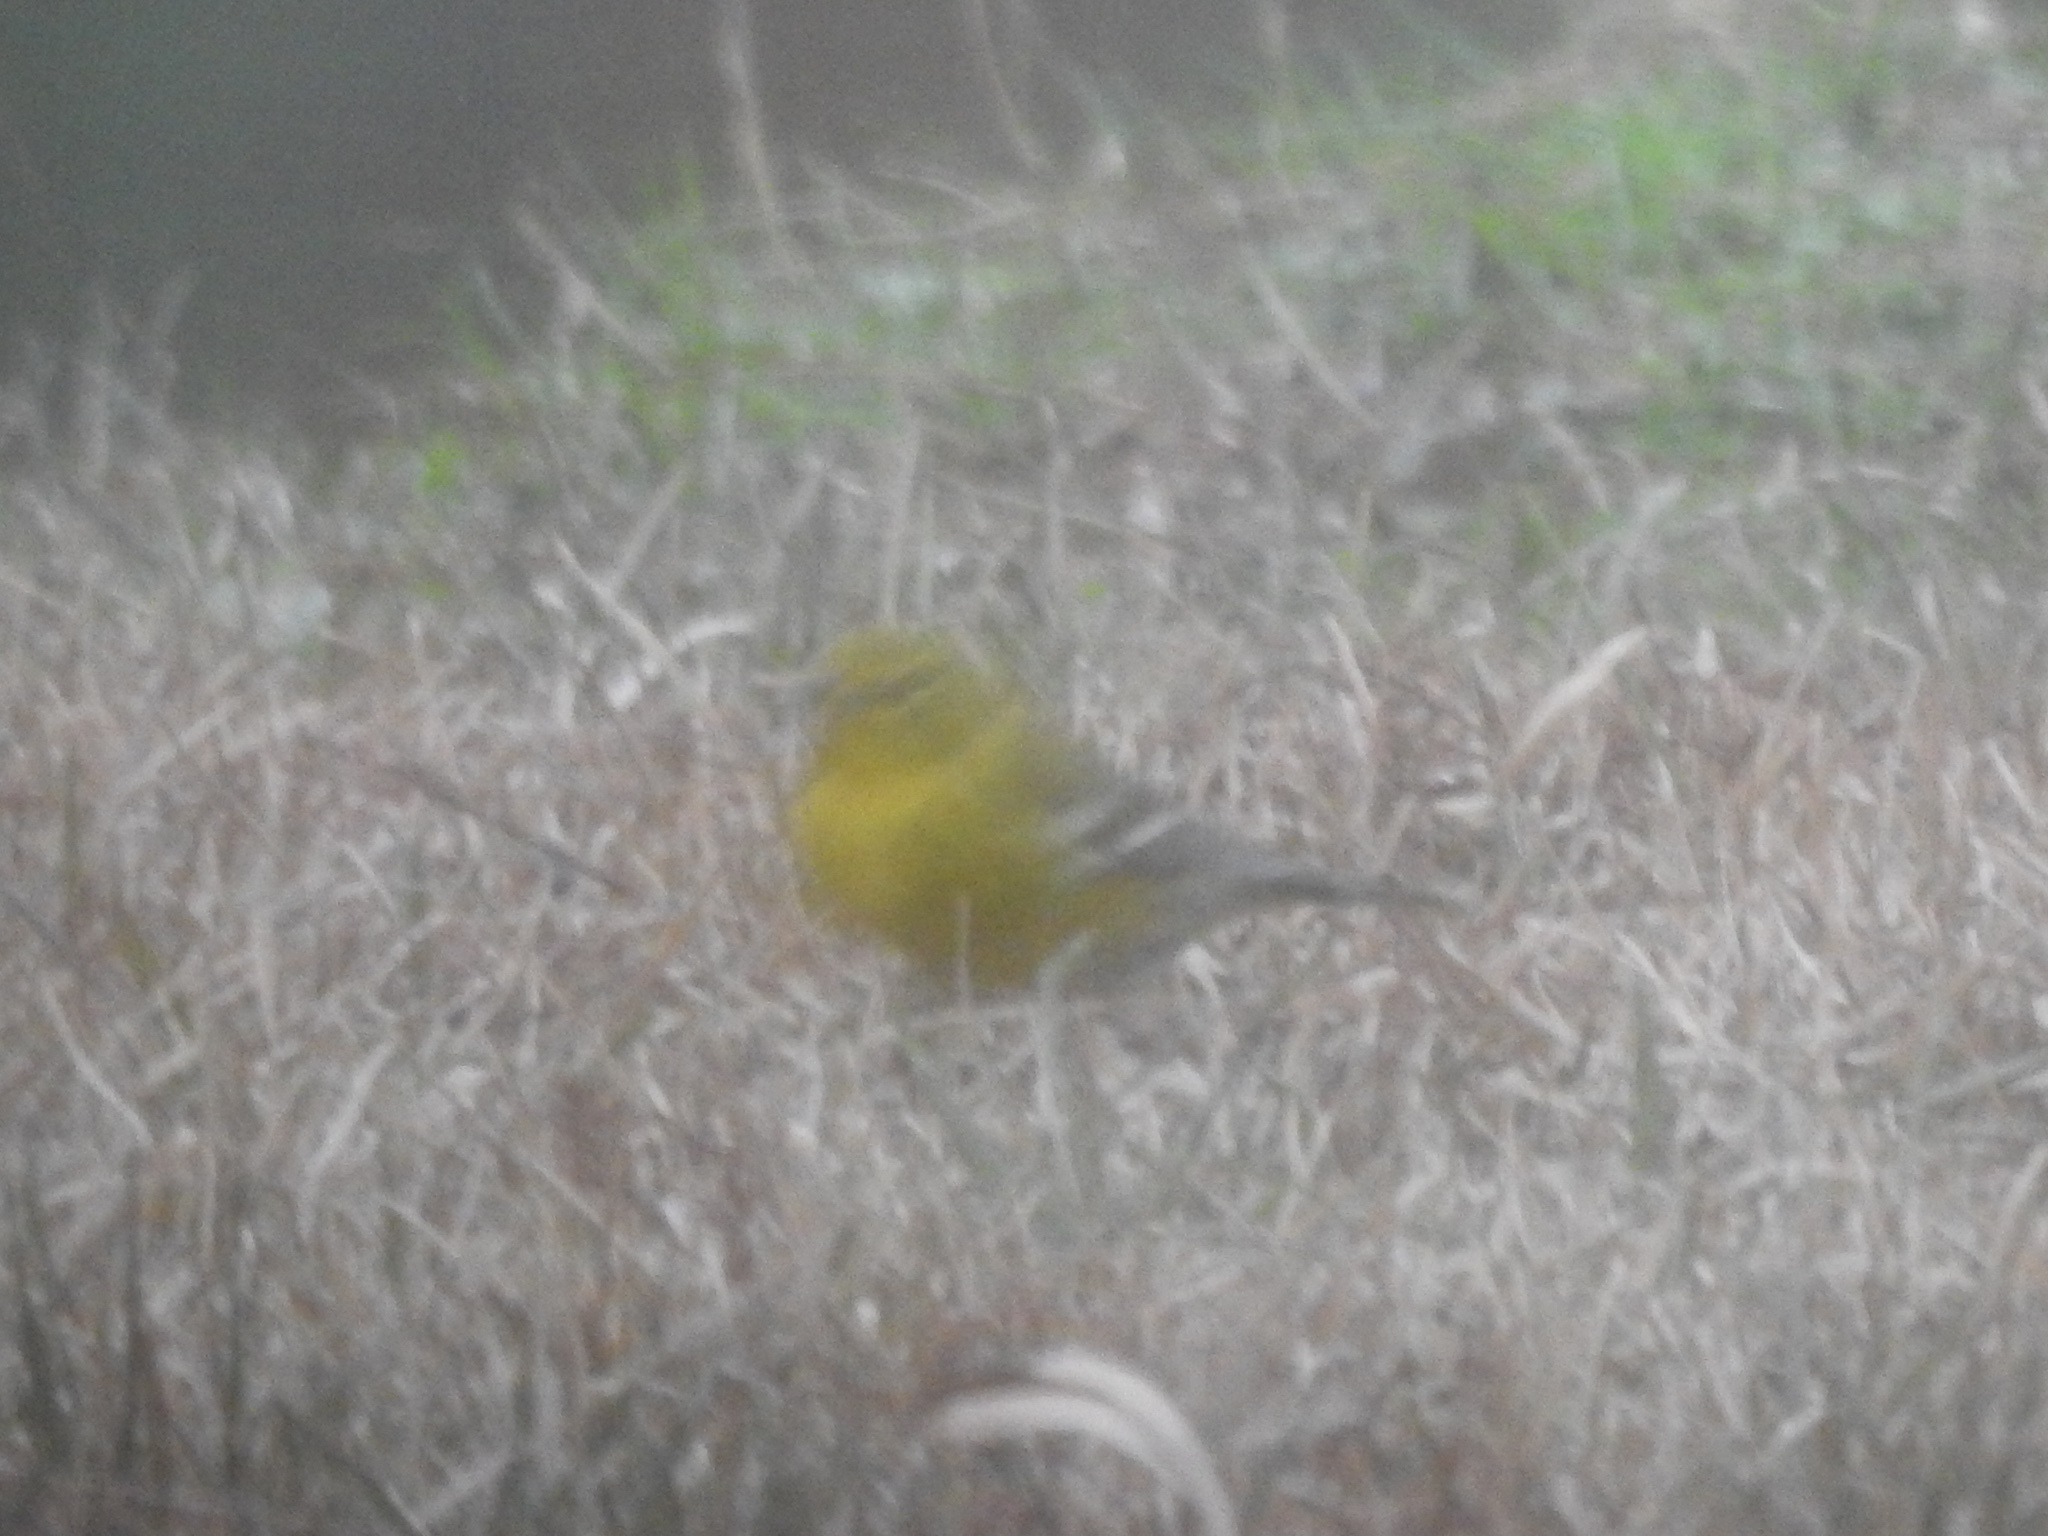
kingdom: Animalia
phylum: Chordata
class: Aves
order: Passeriformes
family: Parulidae
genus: Setophaga
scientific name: Setophaga pinus
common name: Pine warbler
